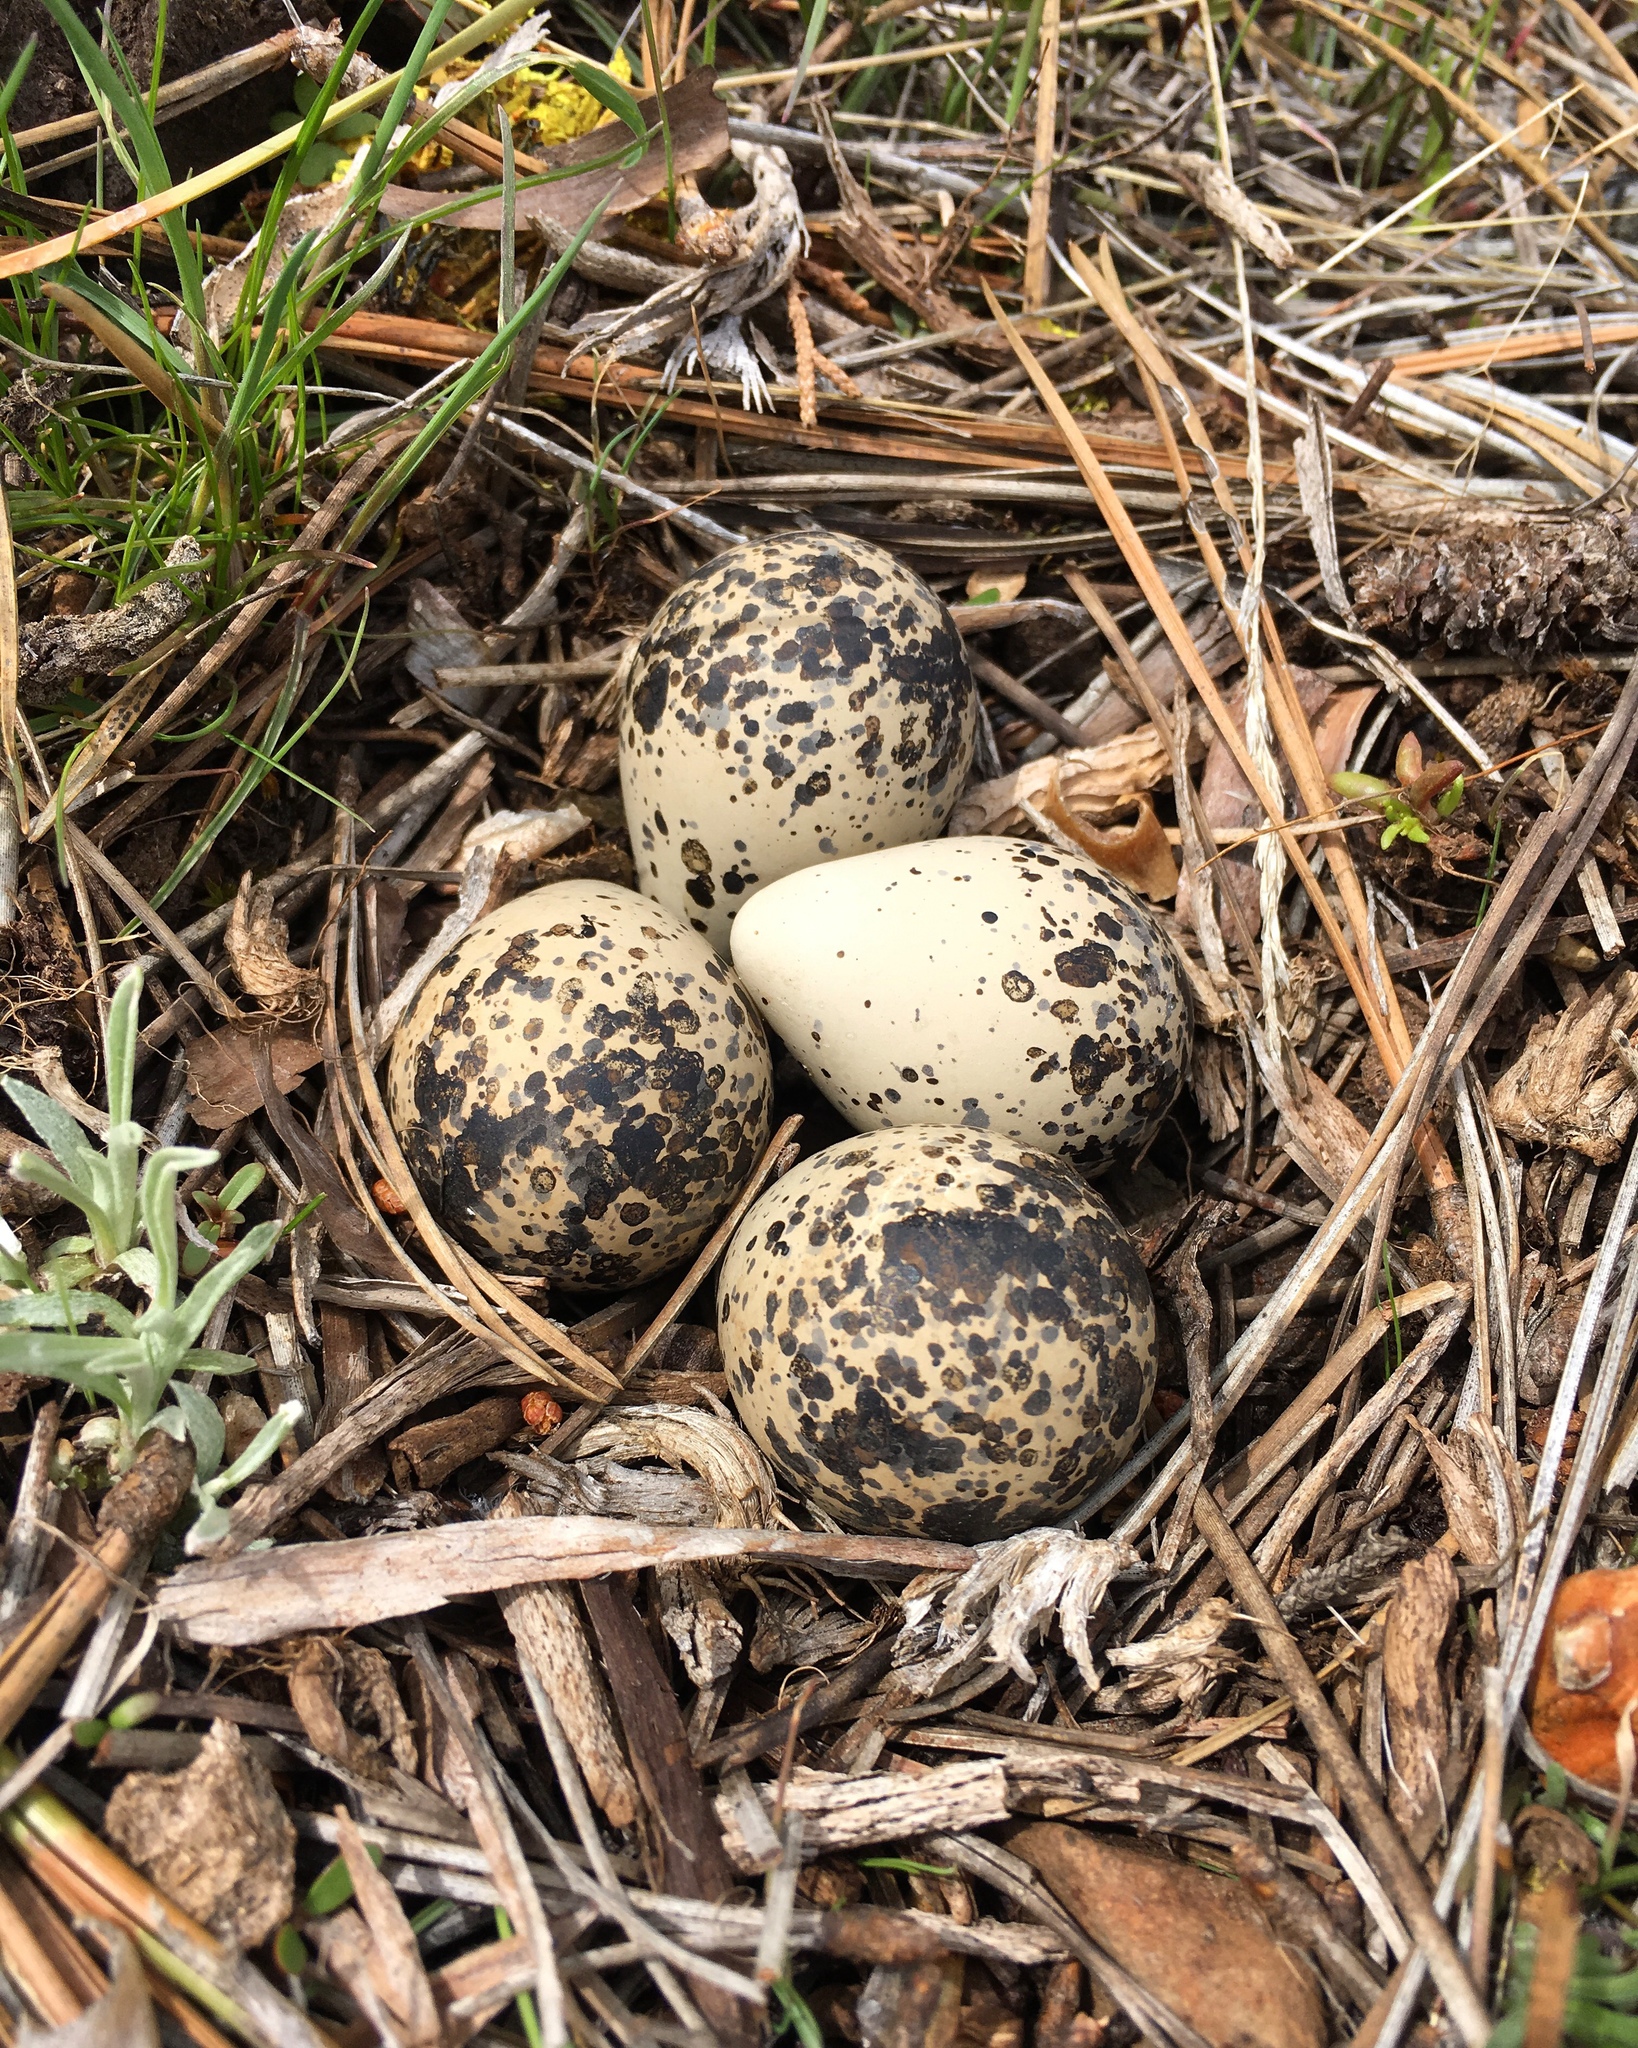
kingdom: Animalia
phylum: Chordata
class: Aves
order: Charadriiformes
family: Charadriidae
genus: Charadrius
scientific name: Charadrius vociferus
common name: Killdeer
